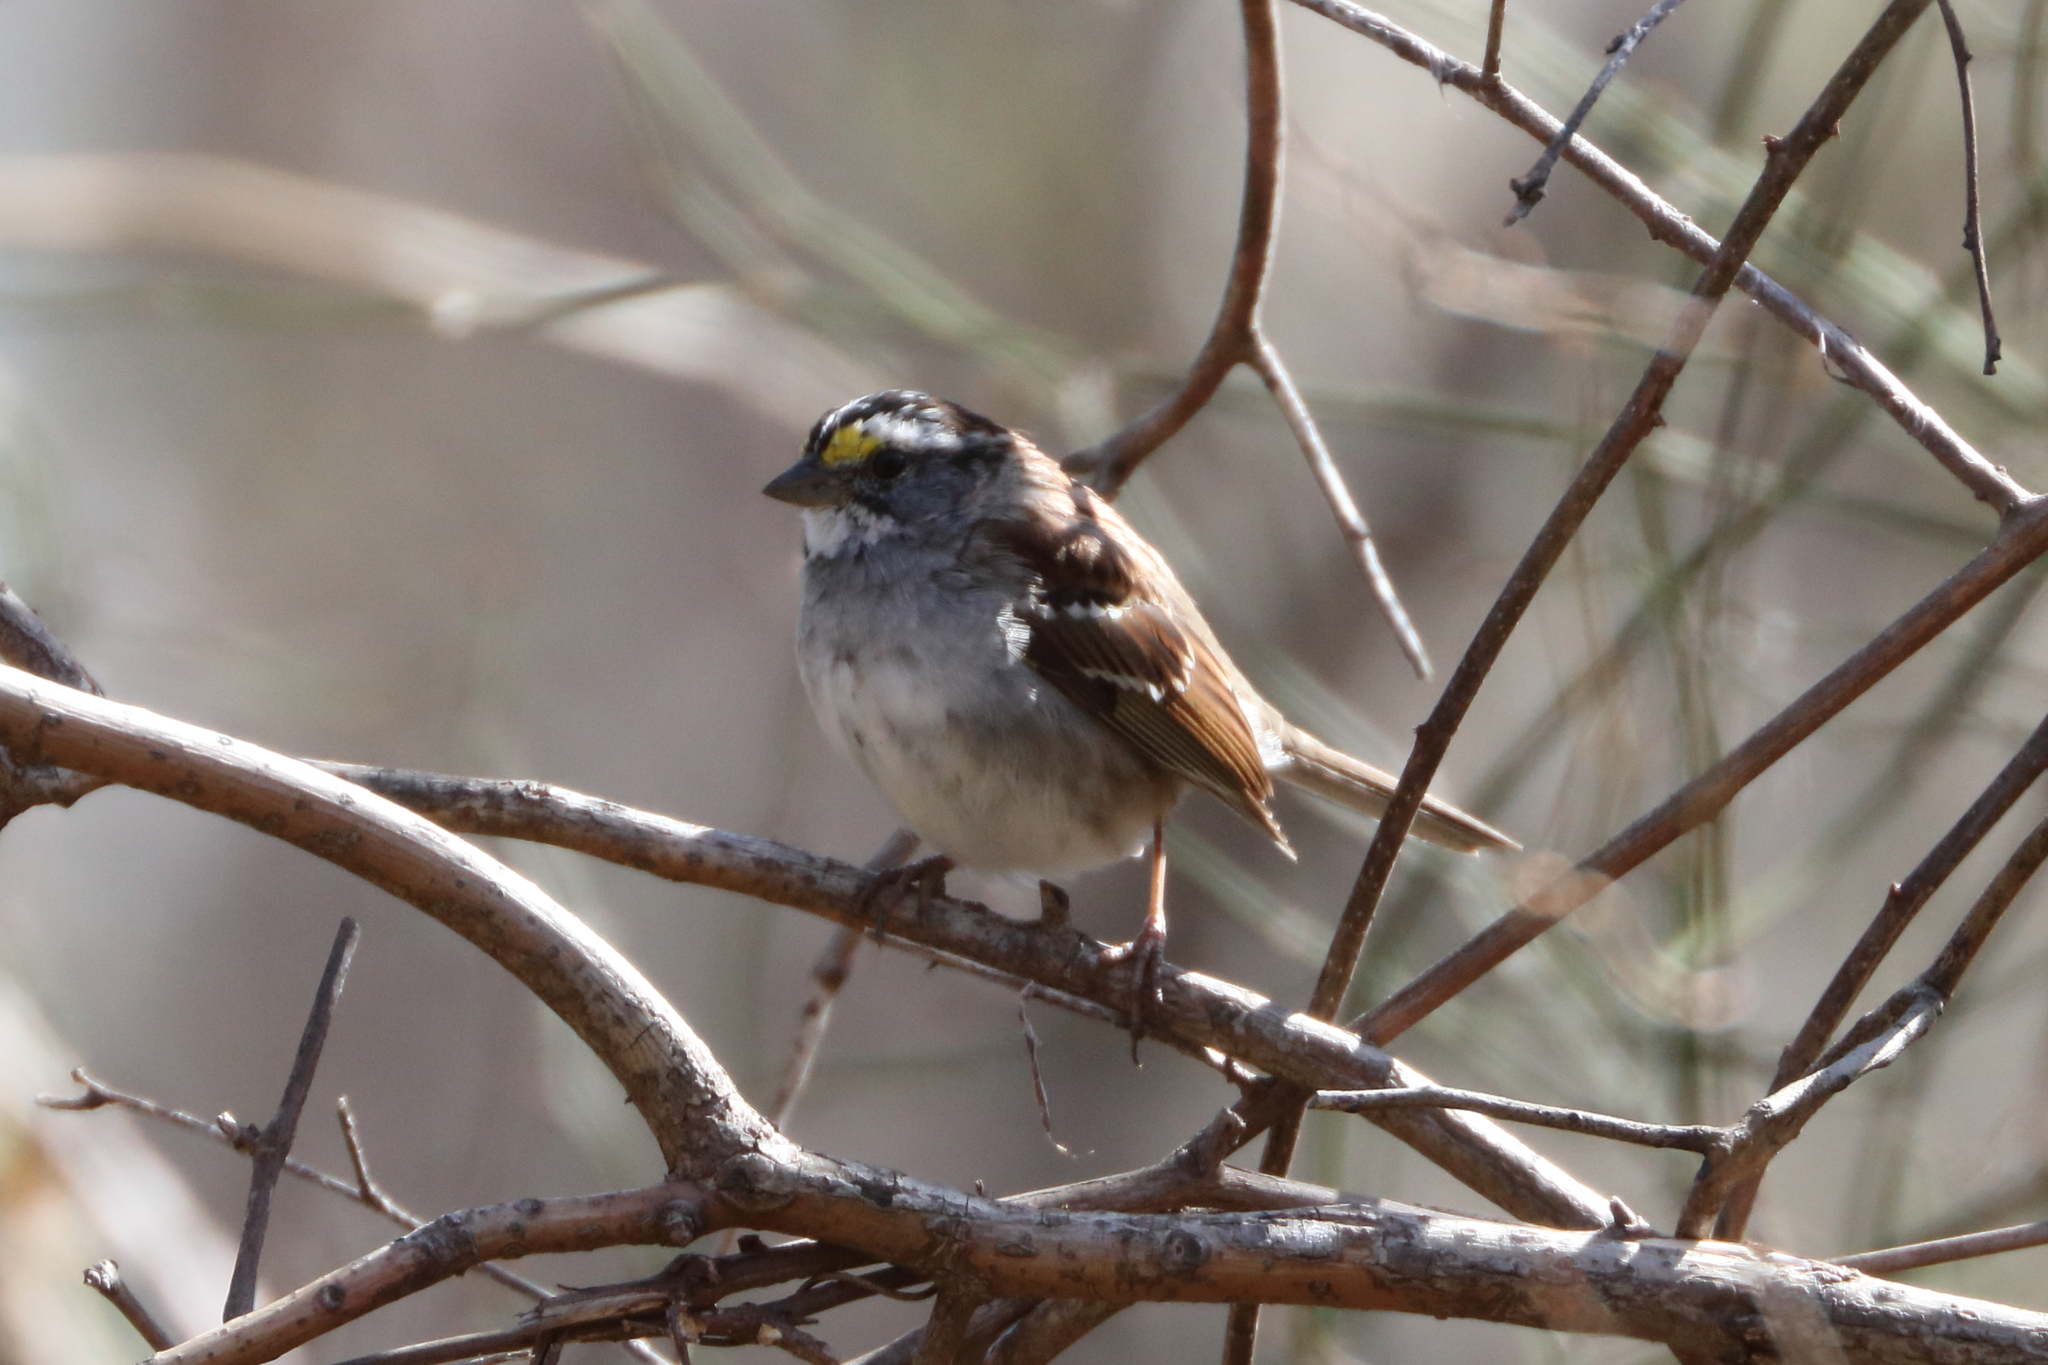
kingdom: Animalia
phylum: Chordata
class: Aves
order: Passeriformes
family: Passerellidae
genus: Zonotrichia
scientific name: Zonotrichia albicollis
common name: White-throated sparrow
